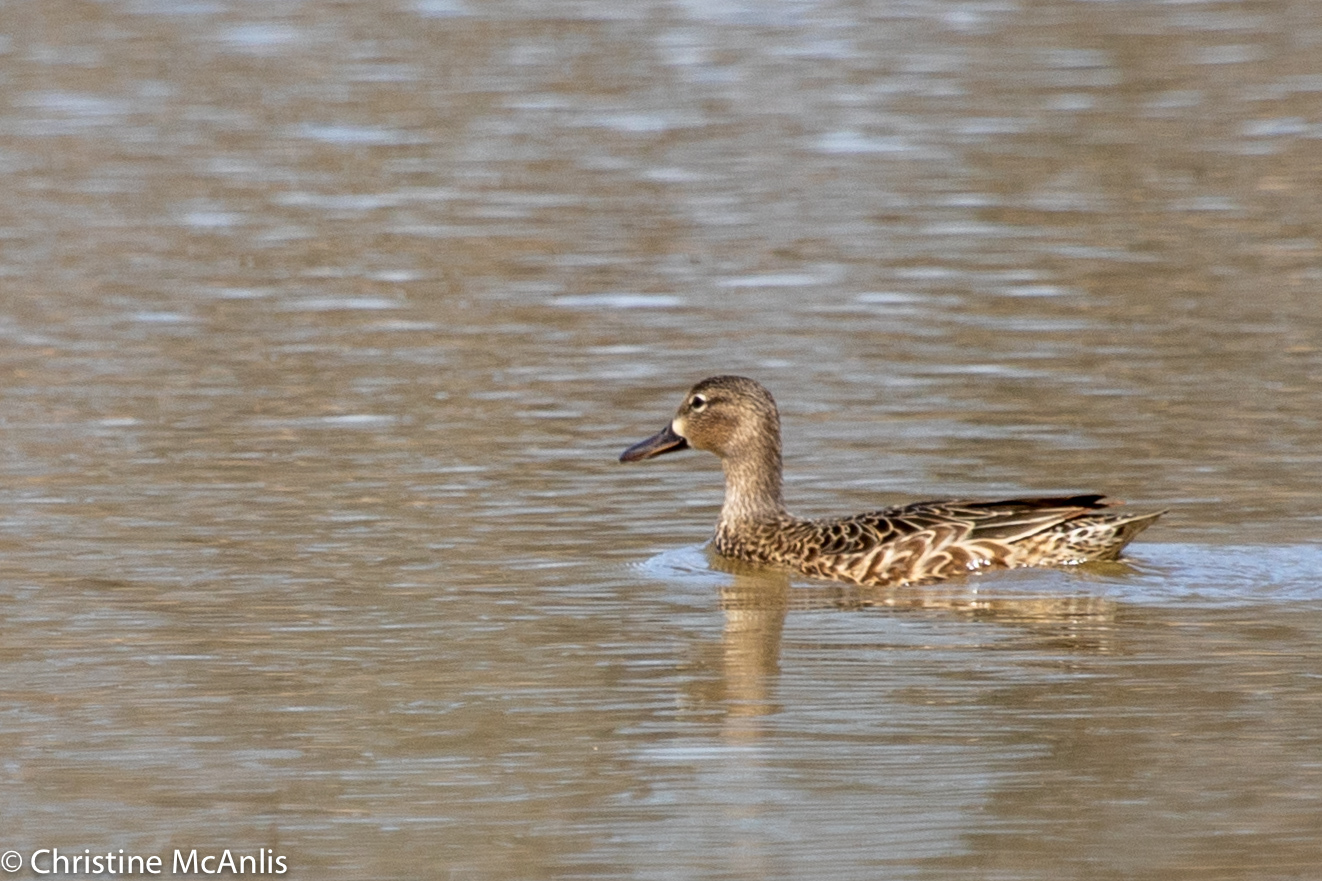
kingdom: Animalia
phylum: Chordata
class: Aves
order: Anseriformes
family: Anatidae
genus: Spatula
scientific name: Spatula discors
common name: Blue-winged teal
